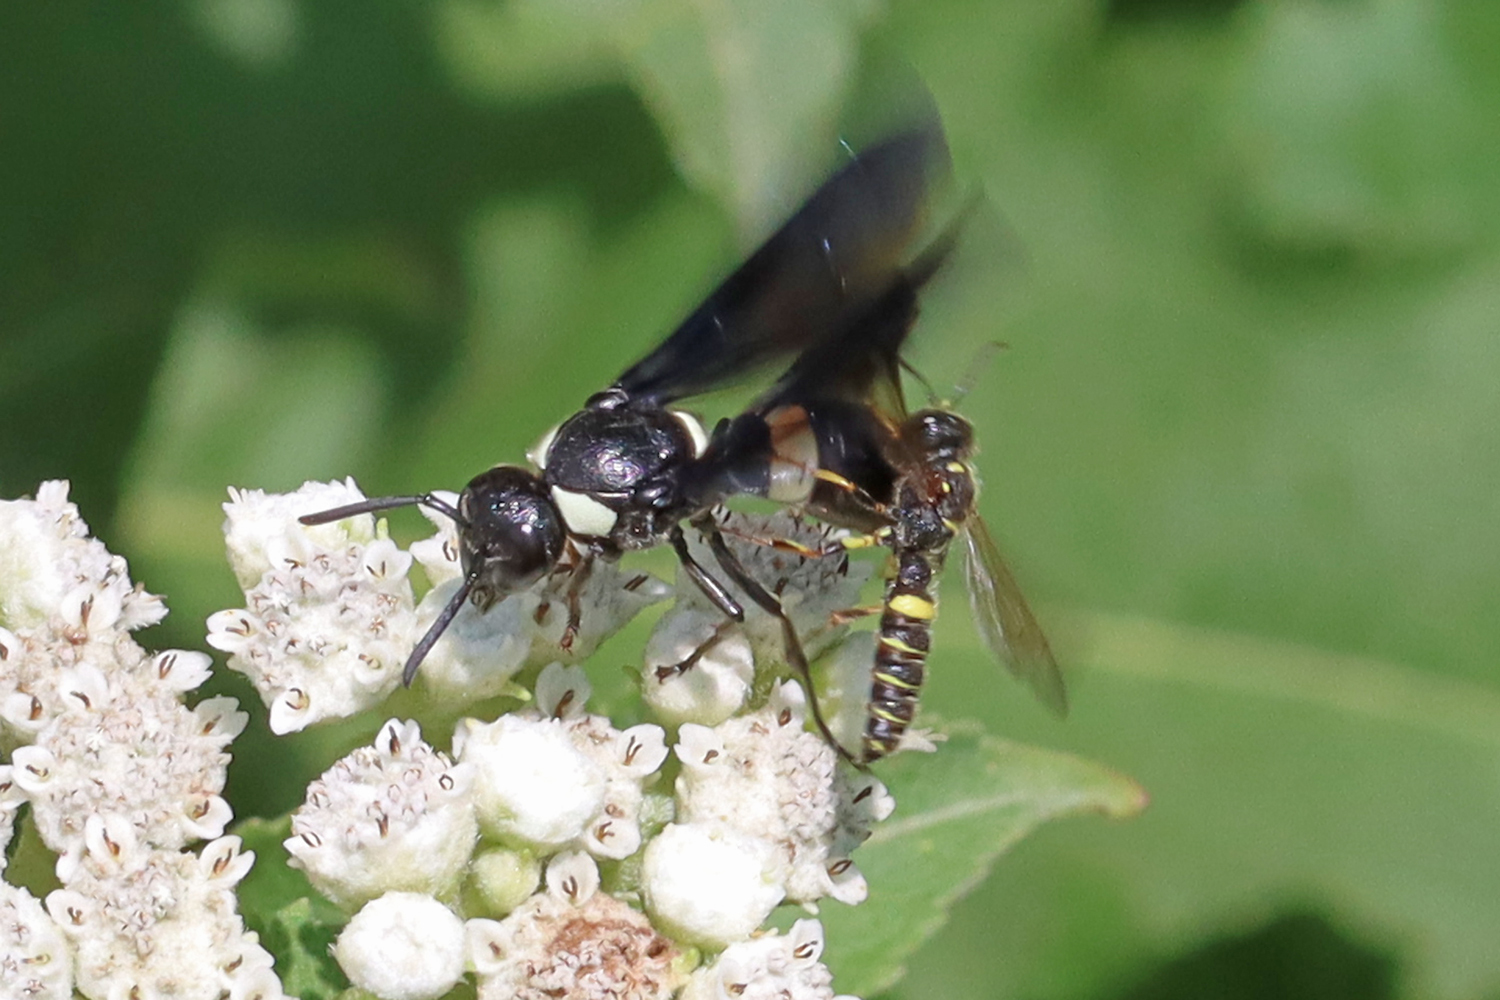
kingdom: Animalia
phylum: Arthropoda
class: Insecta
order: Hymenoptera
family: Eumenidae
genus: Monobia
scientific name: Monobia quadridens
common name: Four-toothed mason wasp
